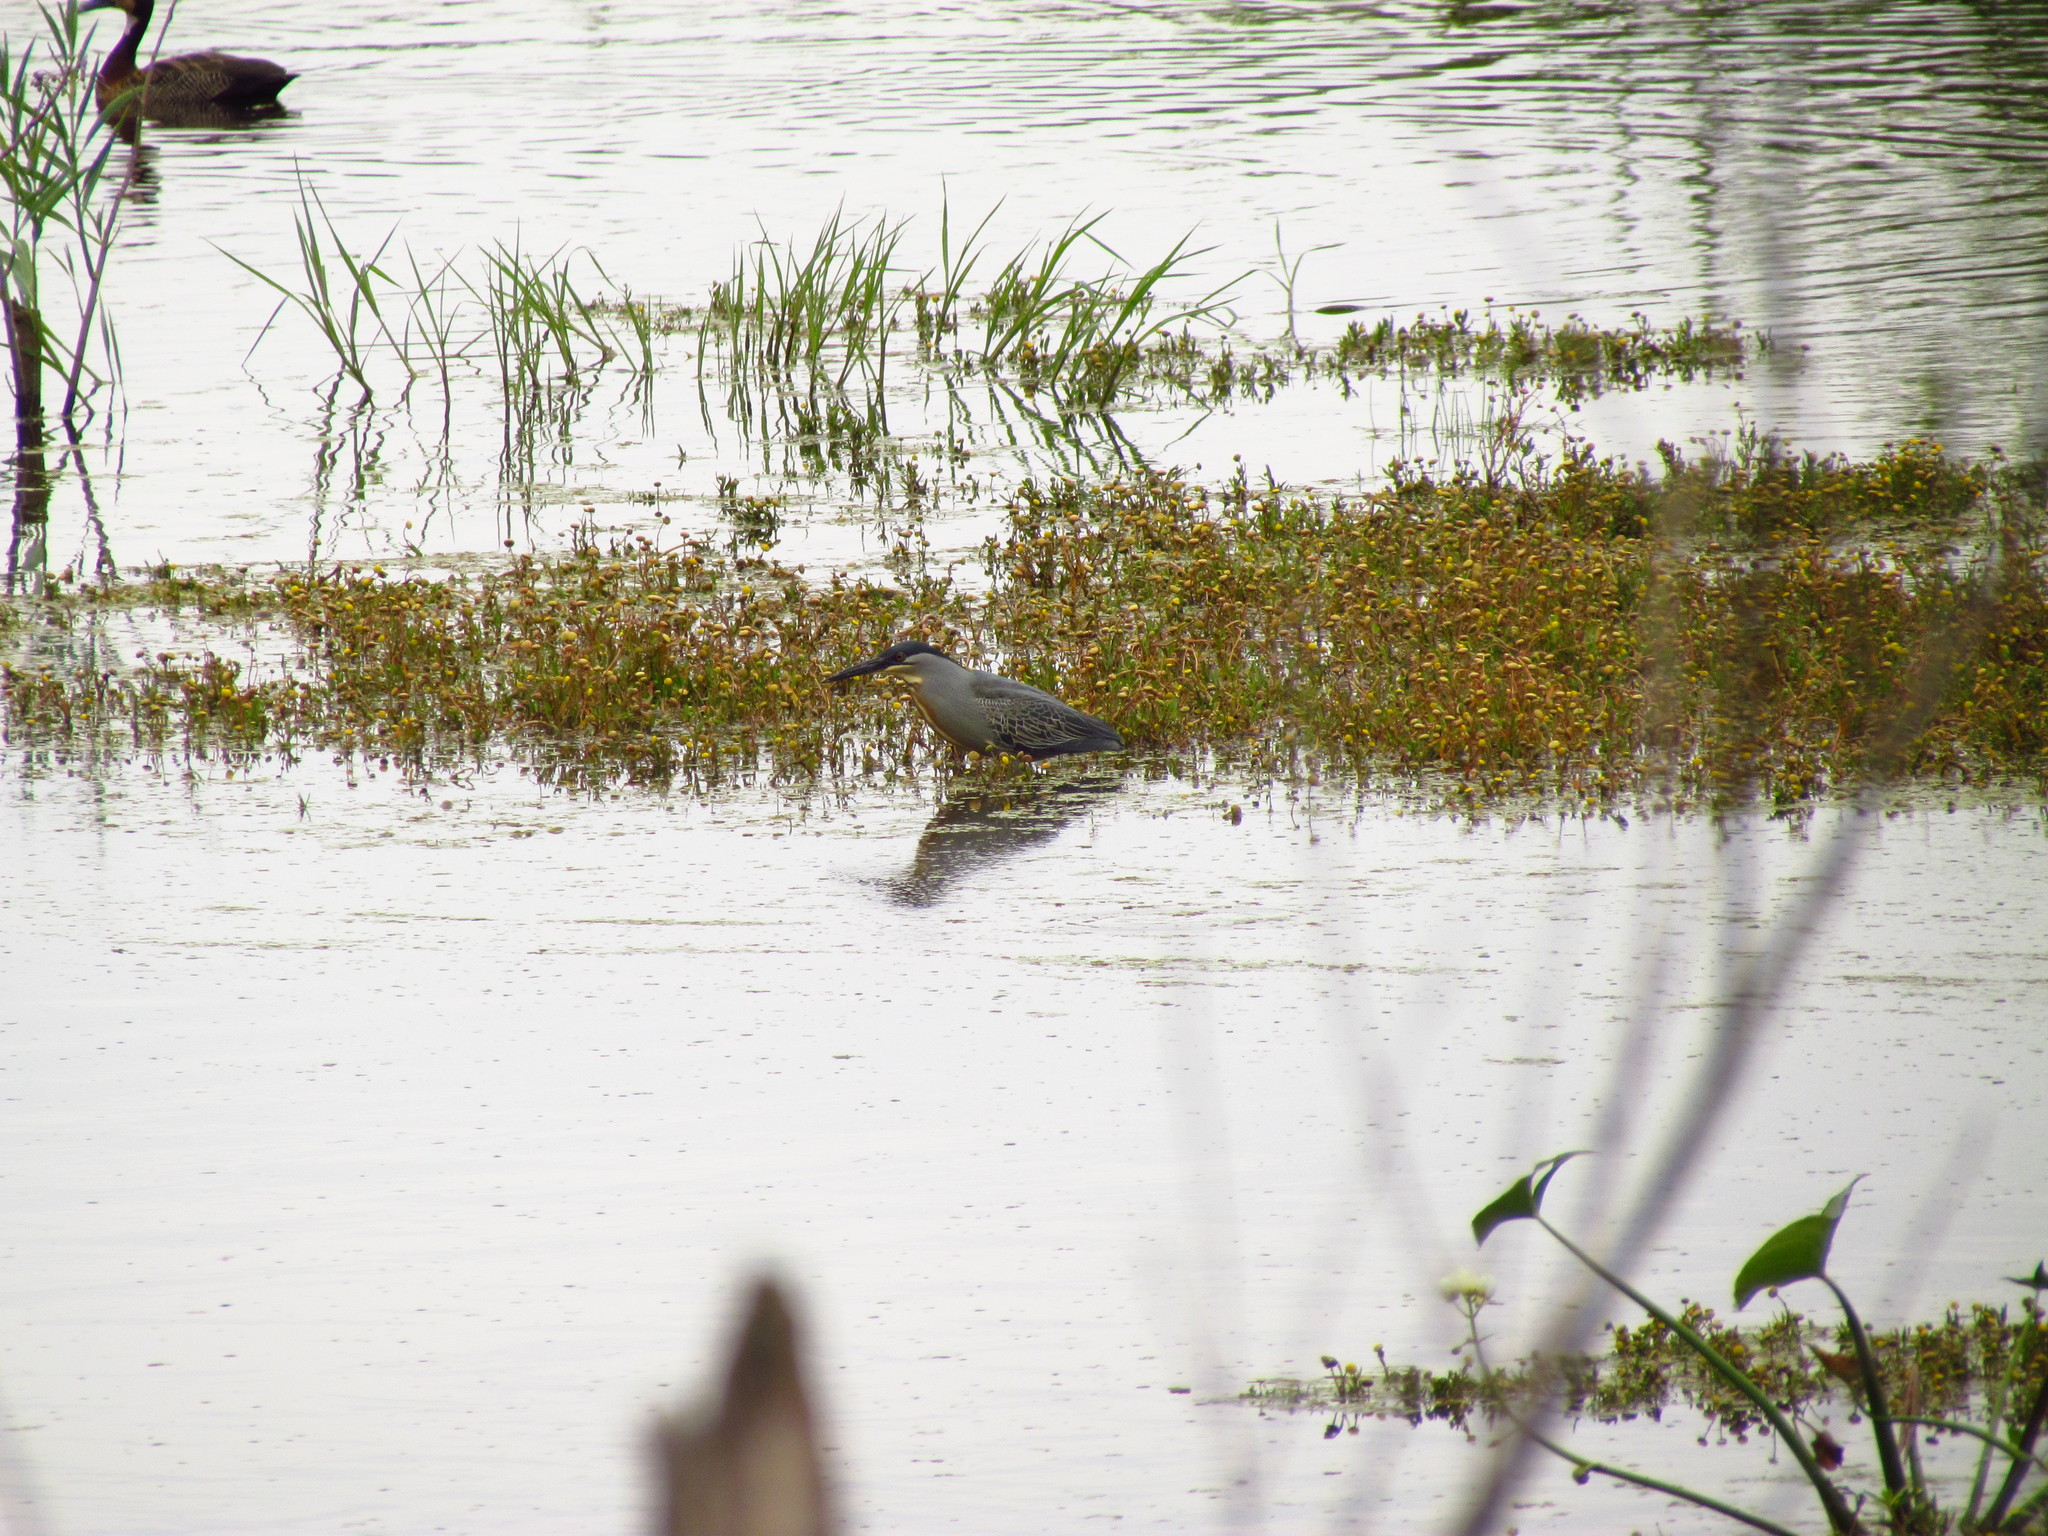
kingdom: Animalia
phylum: Chordata
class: Aves
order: Pelecaniformes
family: Ardeidae
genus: Butorides
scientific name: Butorides striata
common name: Striated heron
